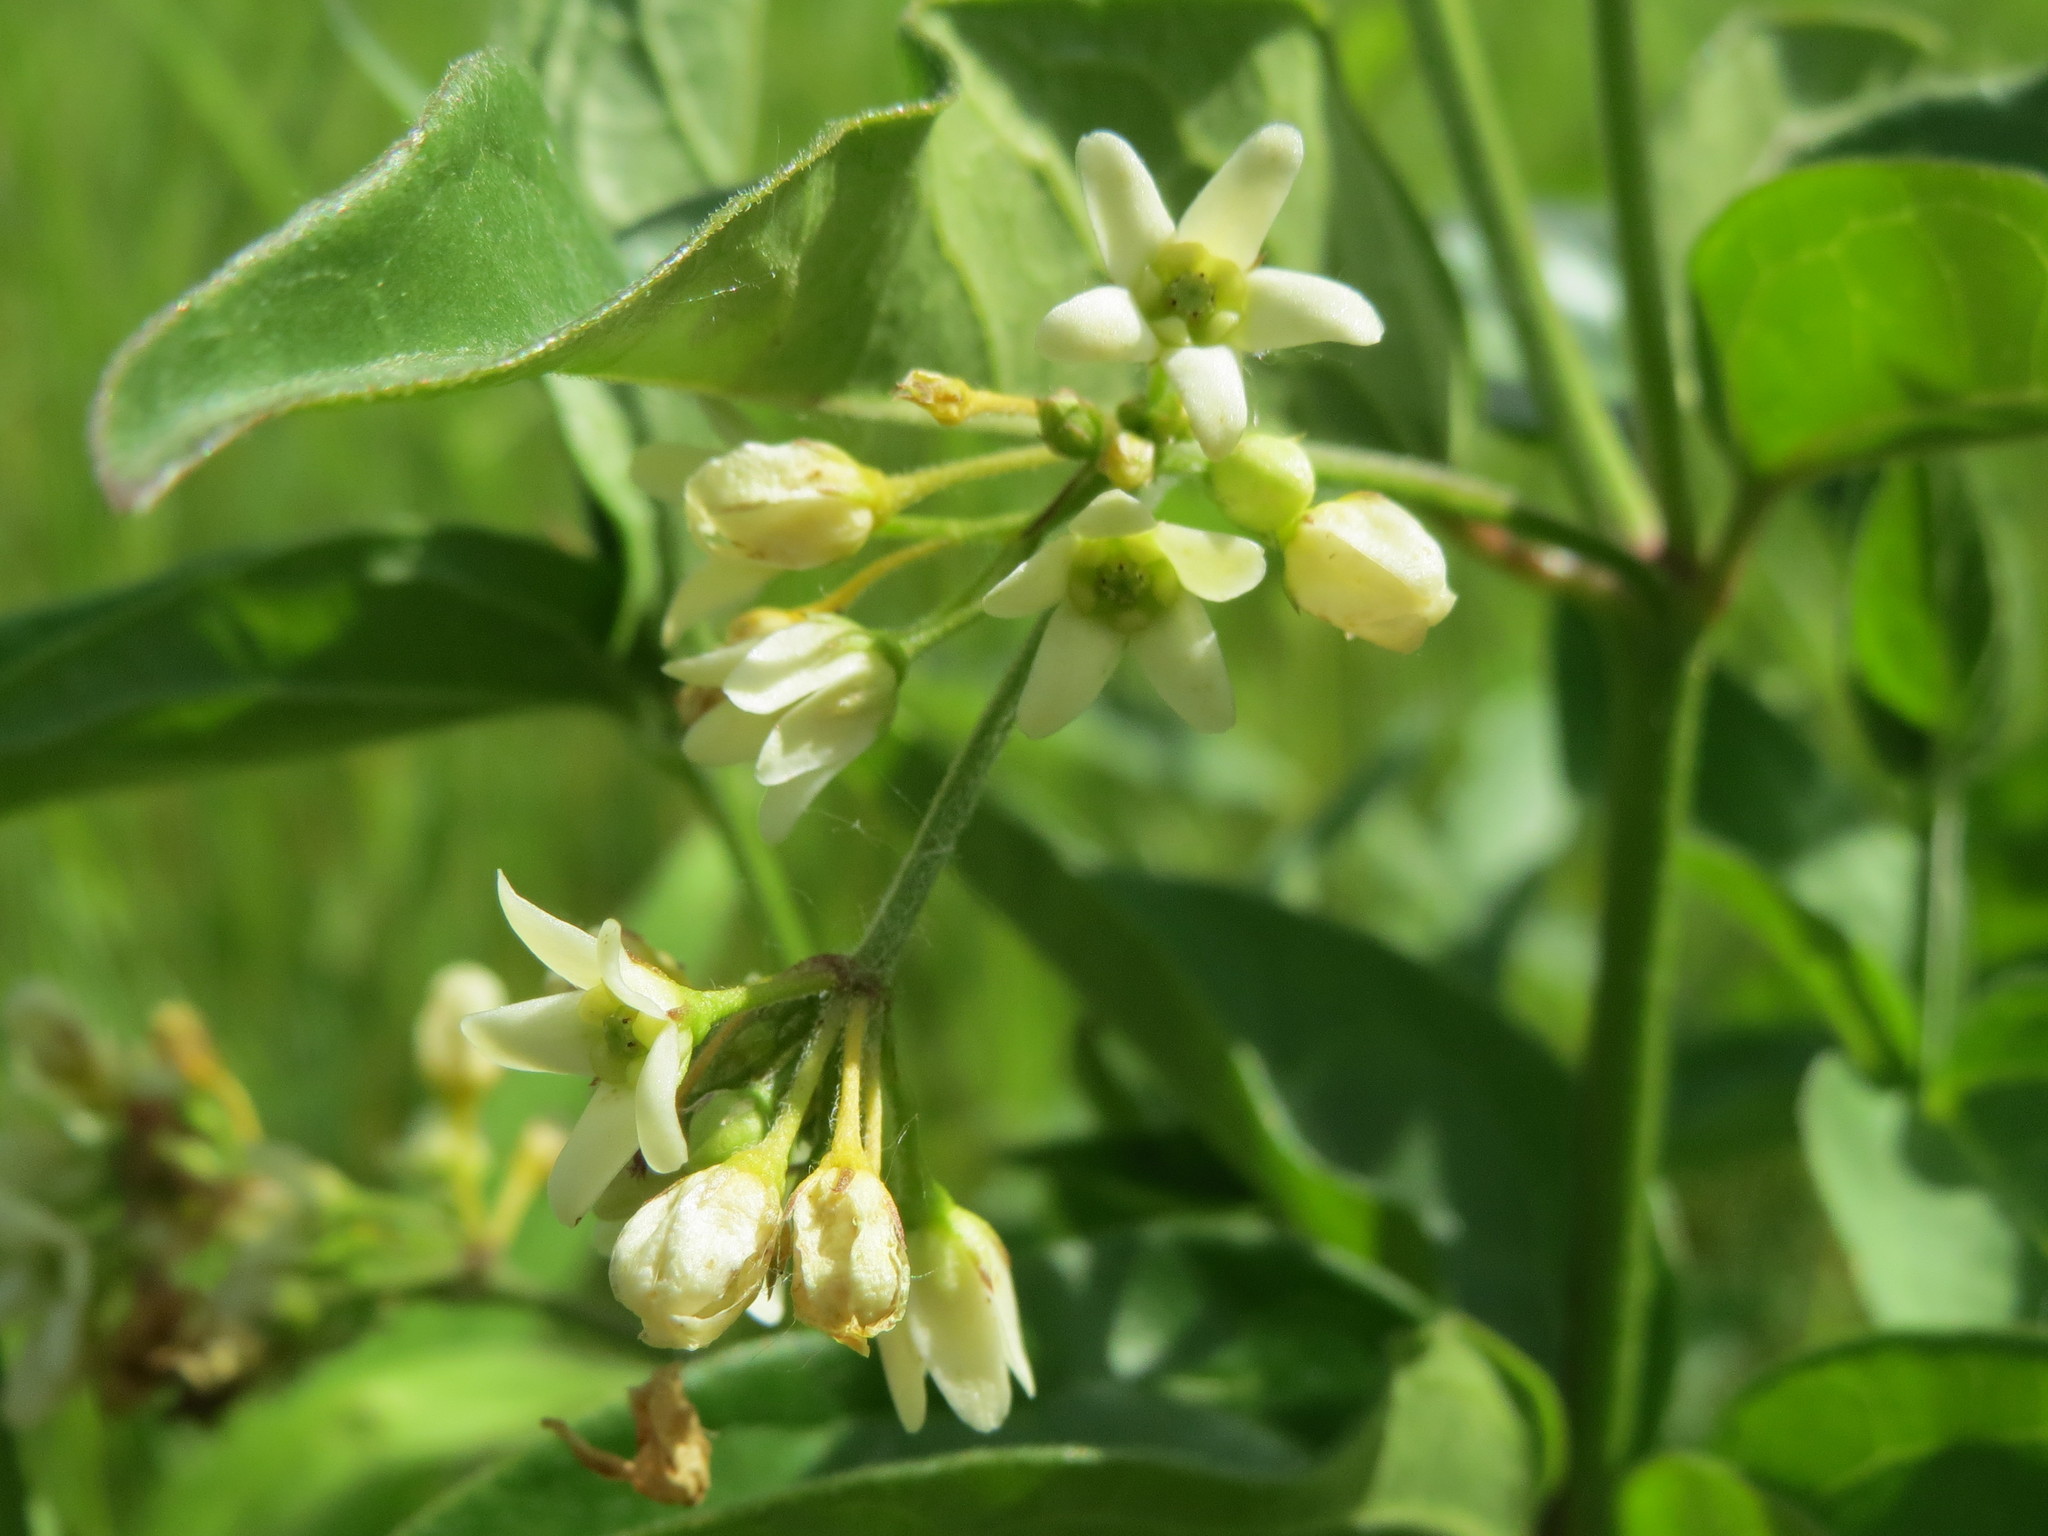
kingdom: Plantae
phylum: Tracheophyta
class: Magnoliopsida
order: Gentianales
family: Apocynaceae
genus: Vincetoxicum
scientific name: Vincetoxicum hirundinaria
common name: White swallowwort
